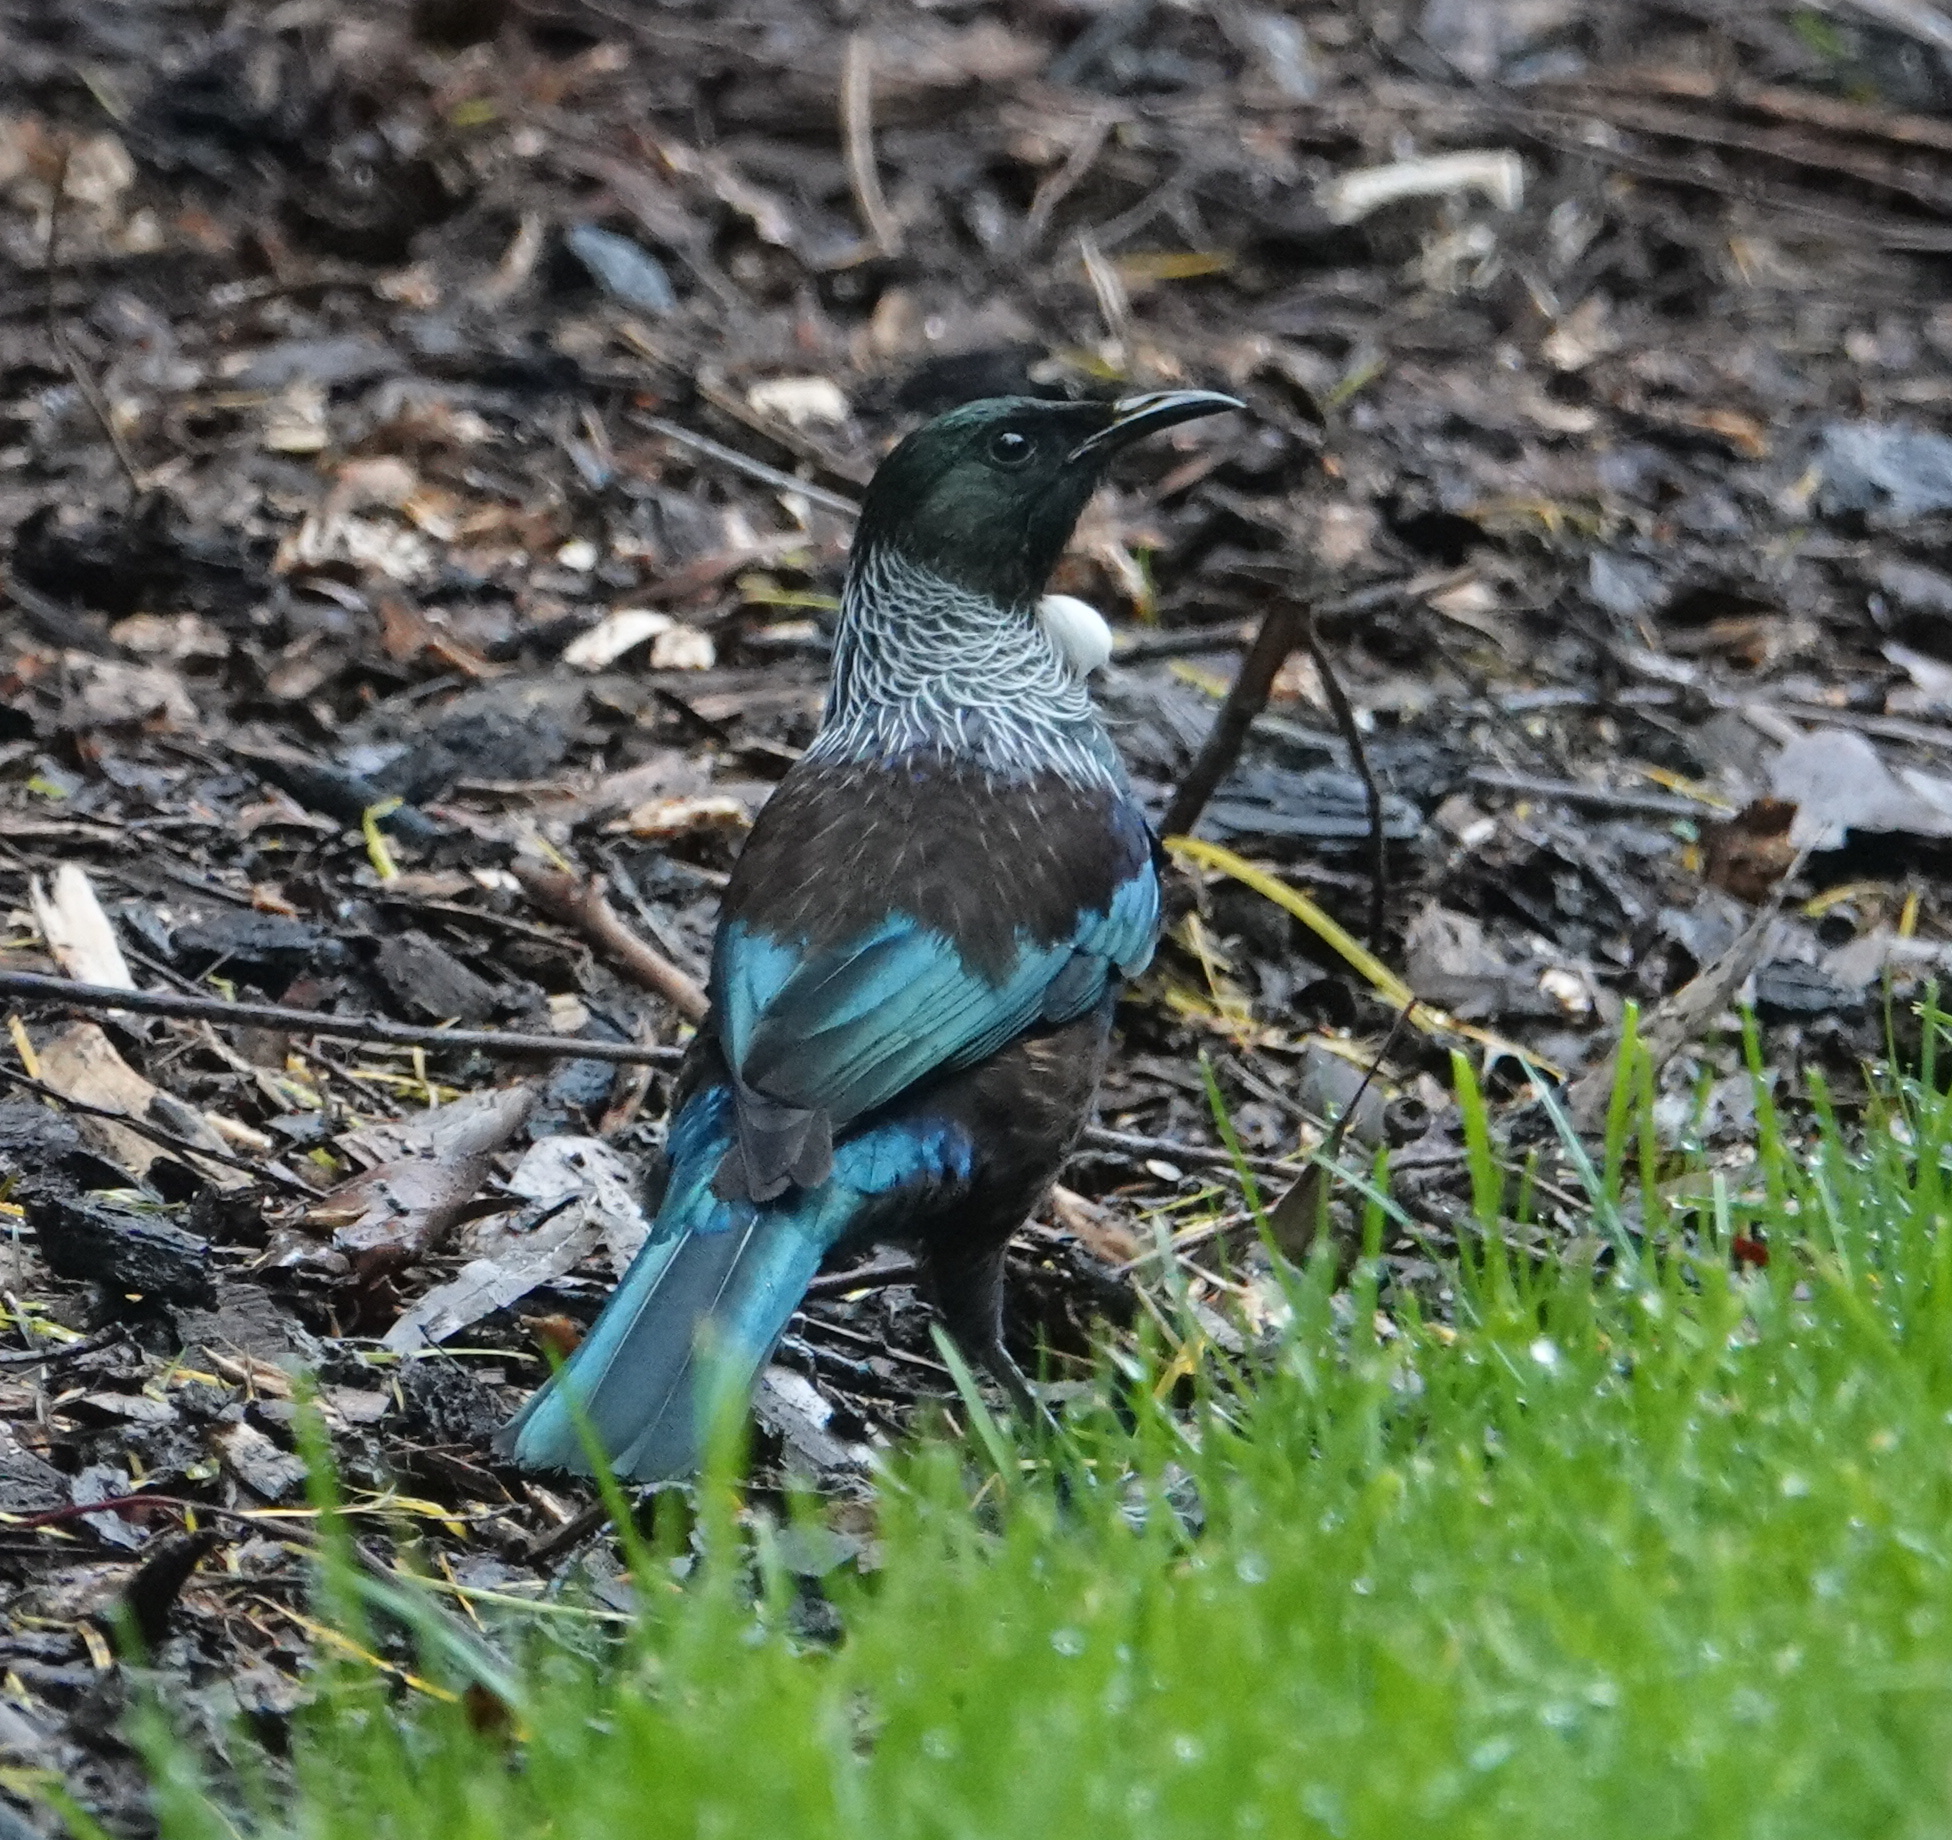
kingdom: Animalia
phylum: Chordata
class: Aves
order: Passeriformes
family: Meliphagidae
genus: Prosthemadera
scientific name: Prosthemadera novaeseelandiae
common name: Tui
